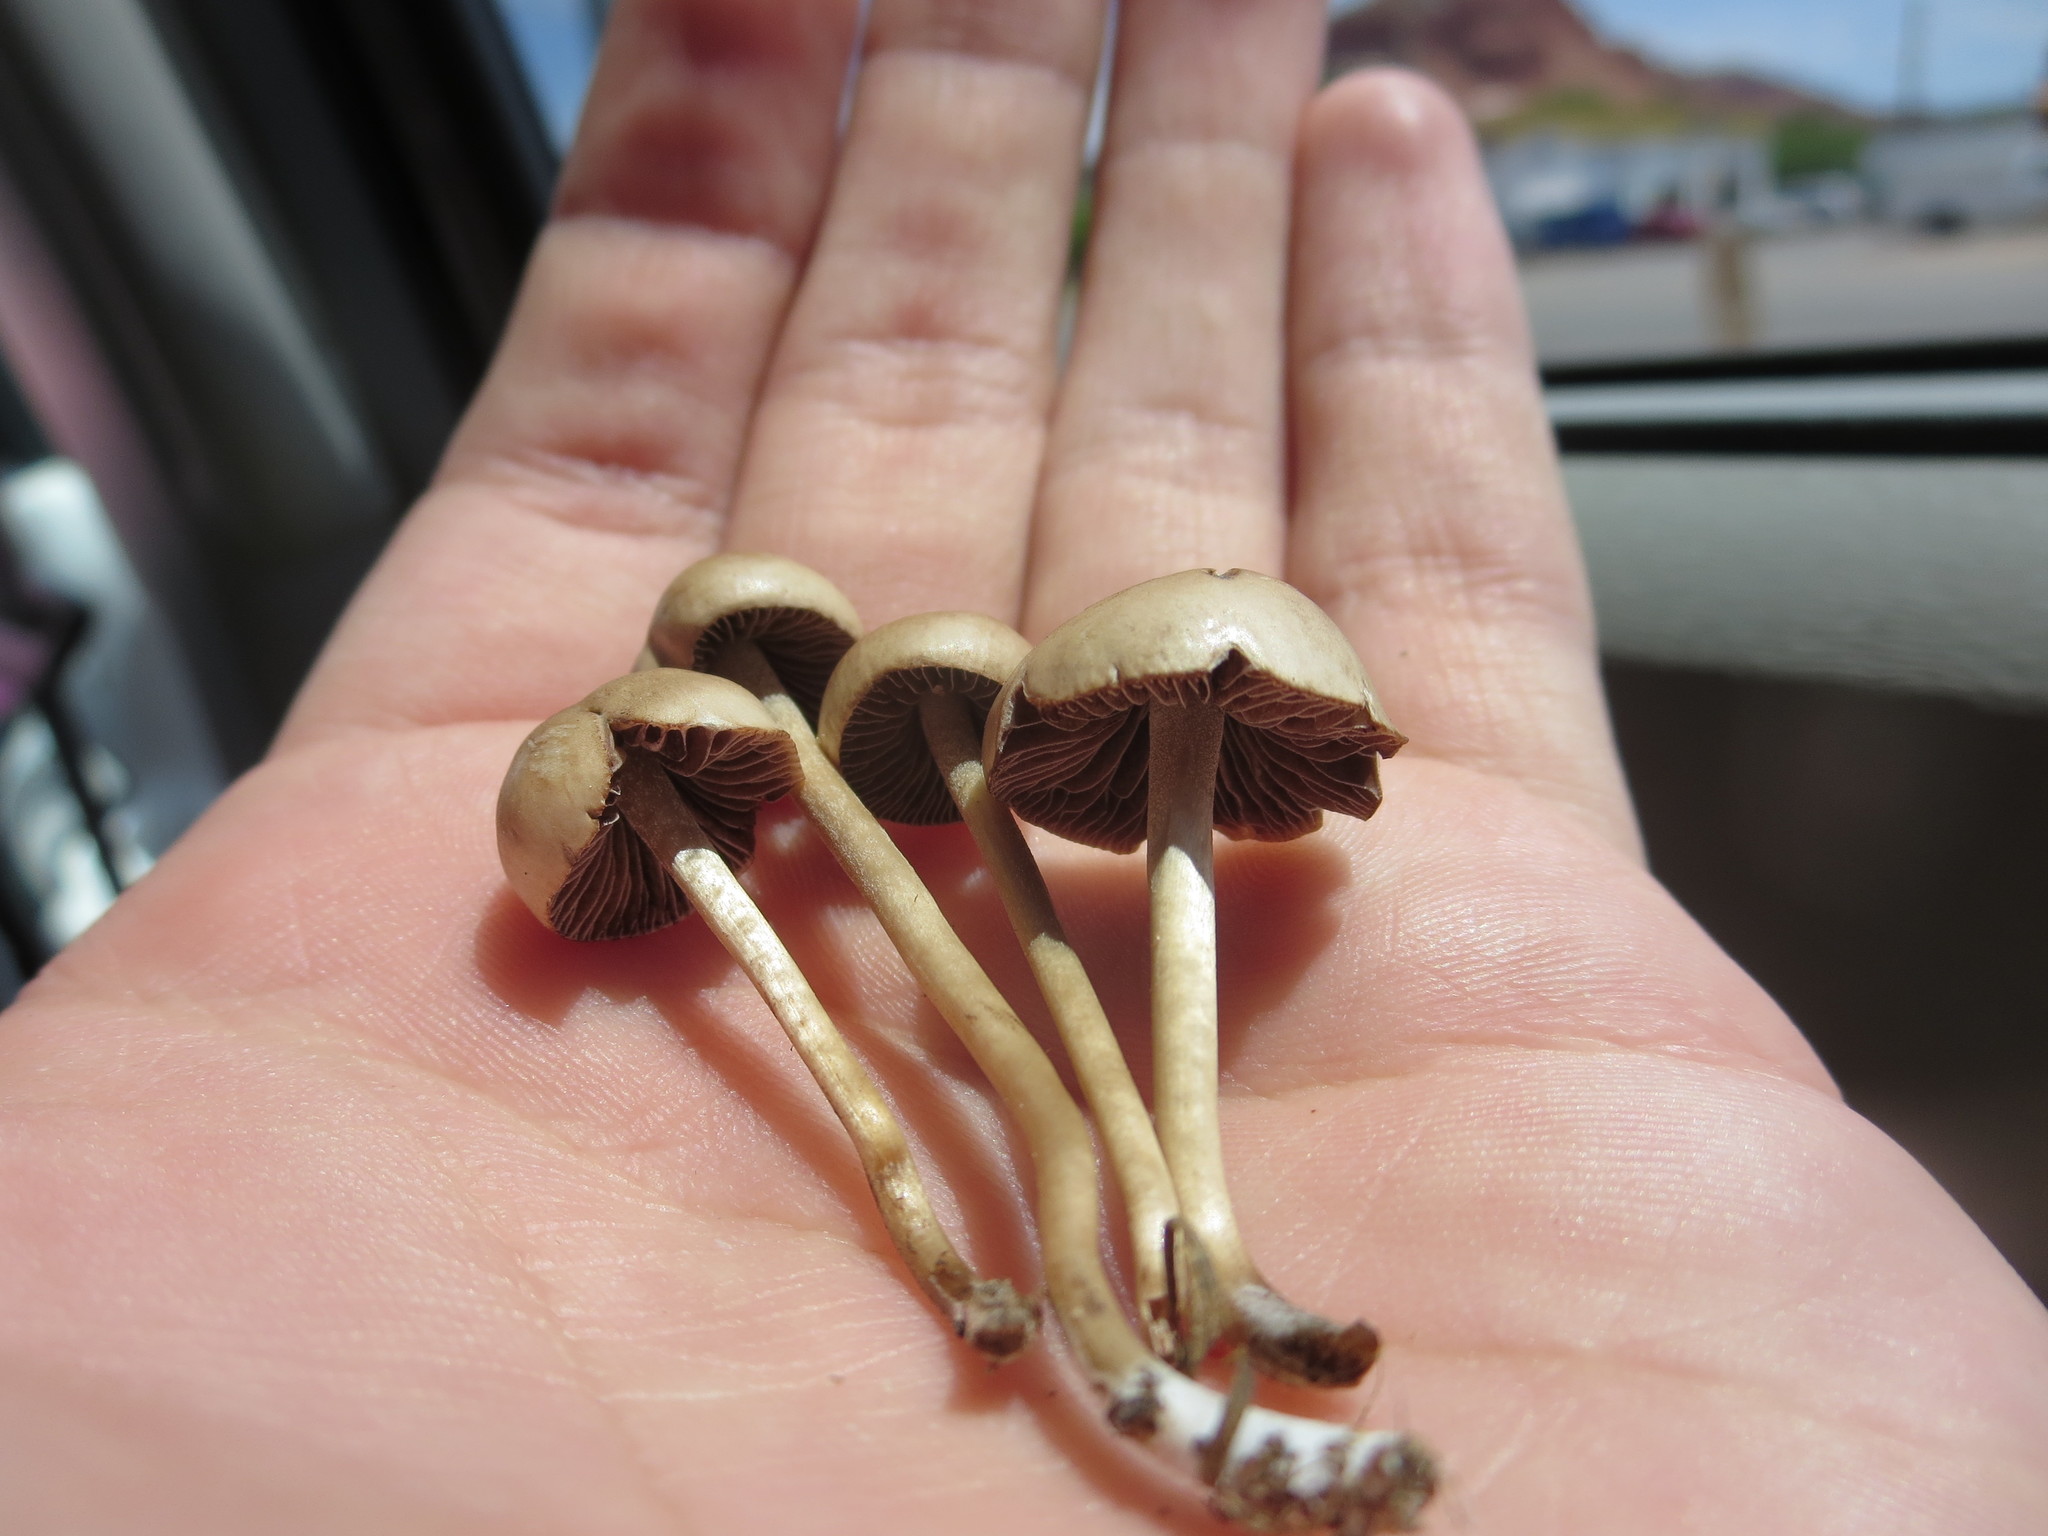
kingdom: Fungi
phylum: Basidiomycota
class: Agaricomycetes
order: Agaricales
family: Bolbitiaceae
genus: Panaeolina
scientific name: Panaeolina foenisecii
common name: Brown hay cap
